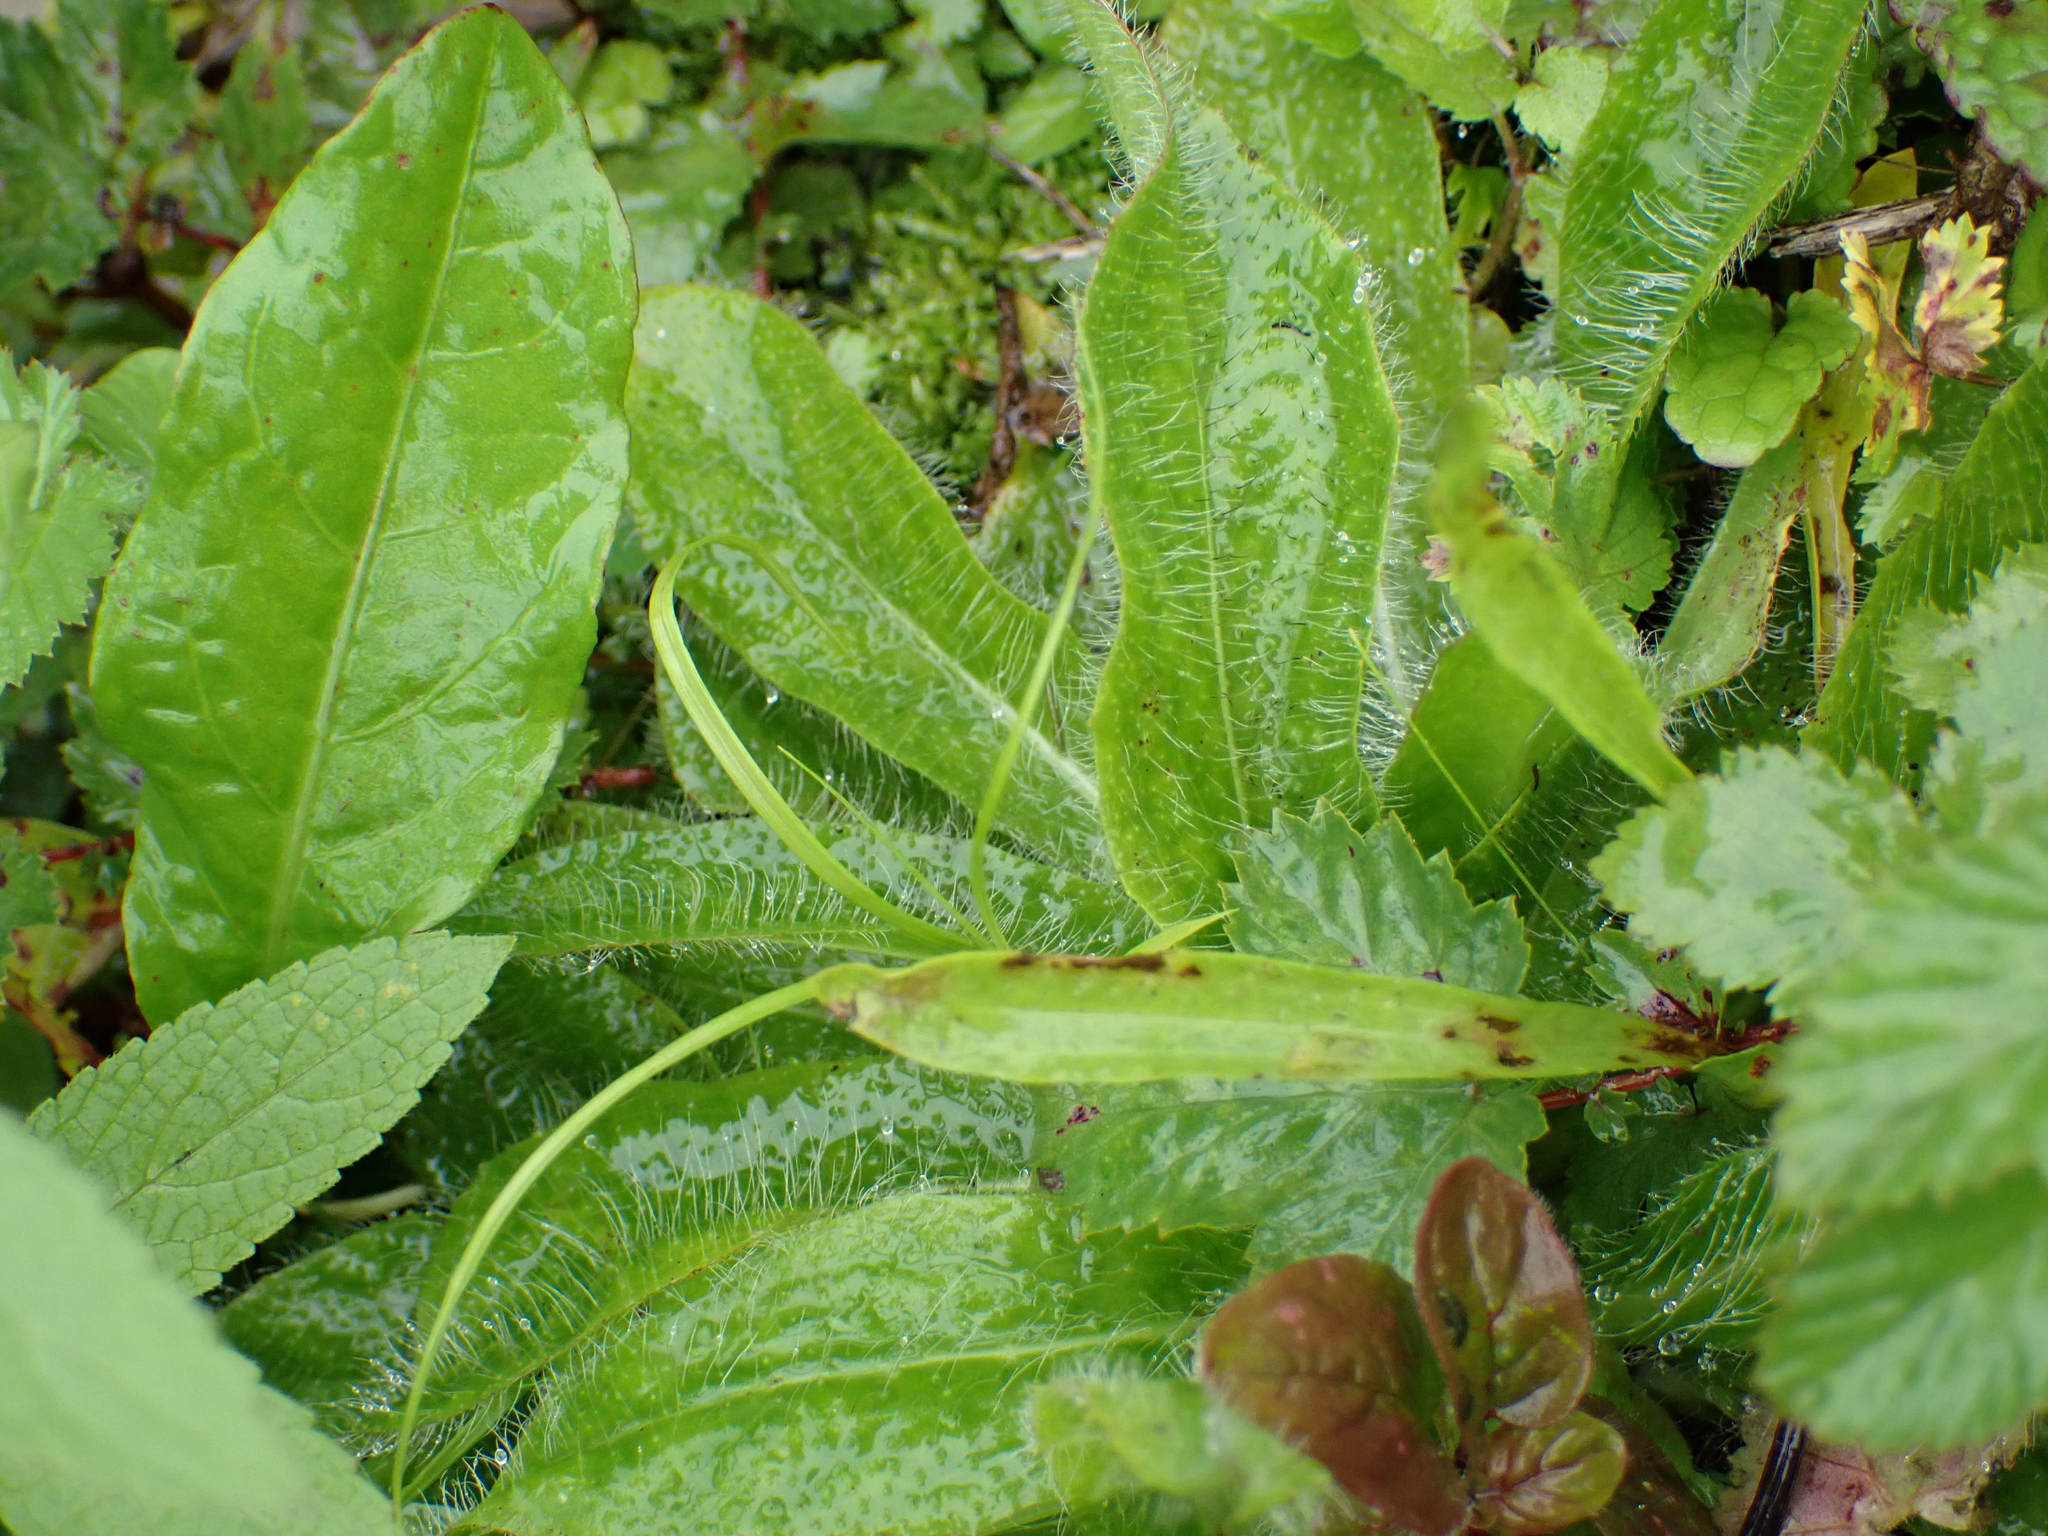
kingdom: Plantae
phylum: Tracheophyta
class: Magnoliopsida
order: Asterales
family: Asteraceae
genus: Pilosella
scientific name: Pilosella aurantiaca
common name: Fox-and-cubs
